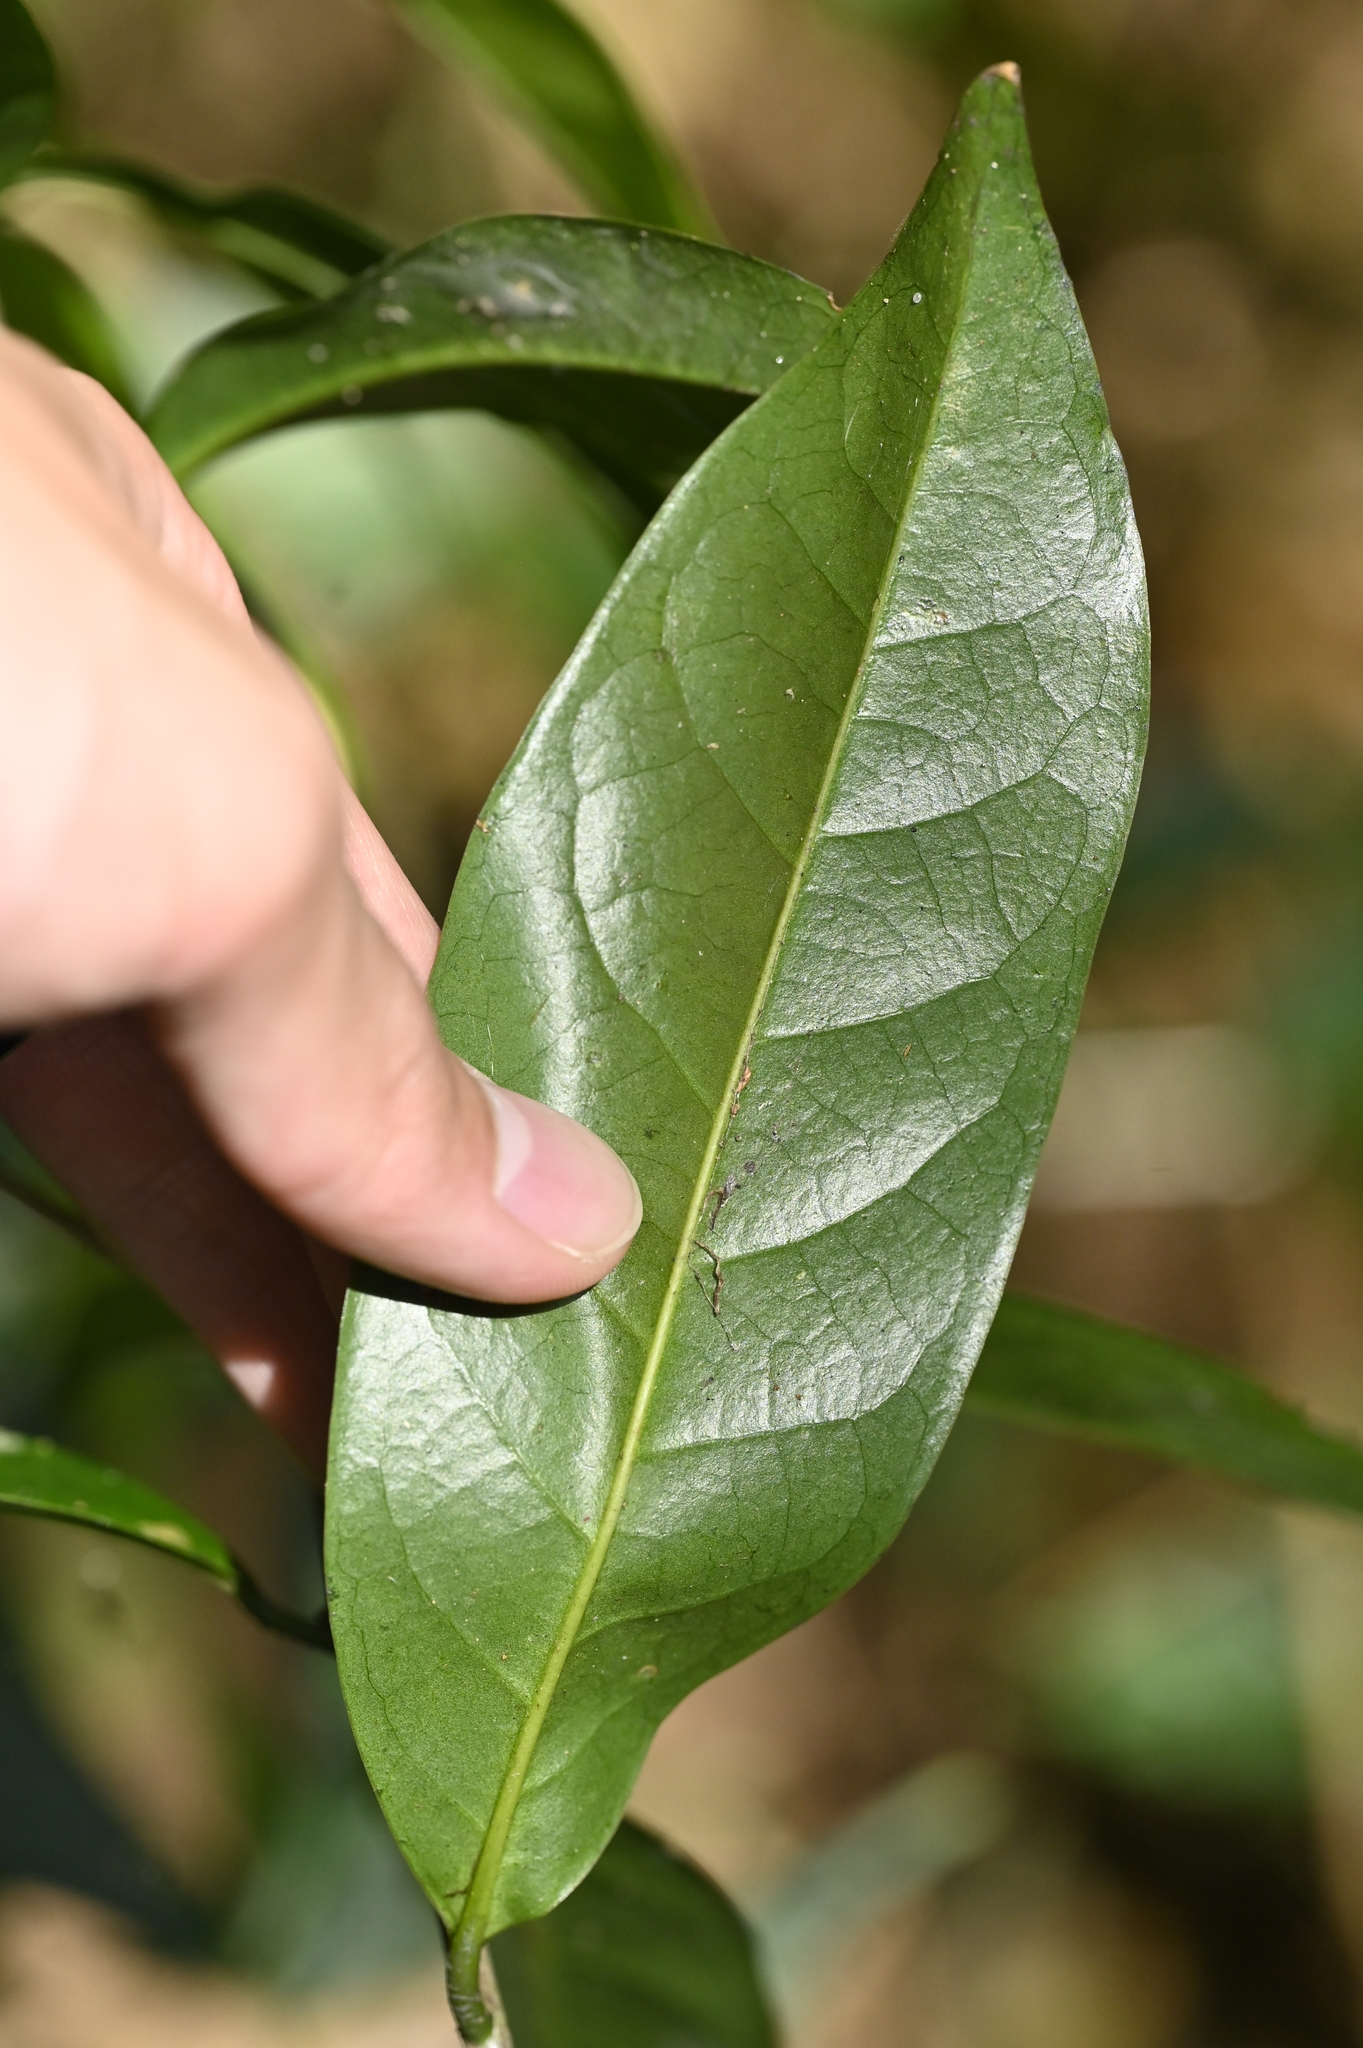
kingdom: Plantae
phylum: Tracheophyta
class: Magnoliopsida
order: Ericales
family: Symplocaceae
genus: Symplocos
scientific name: Symplocos congesta
